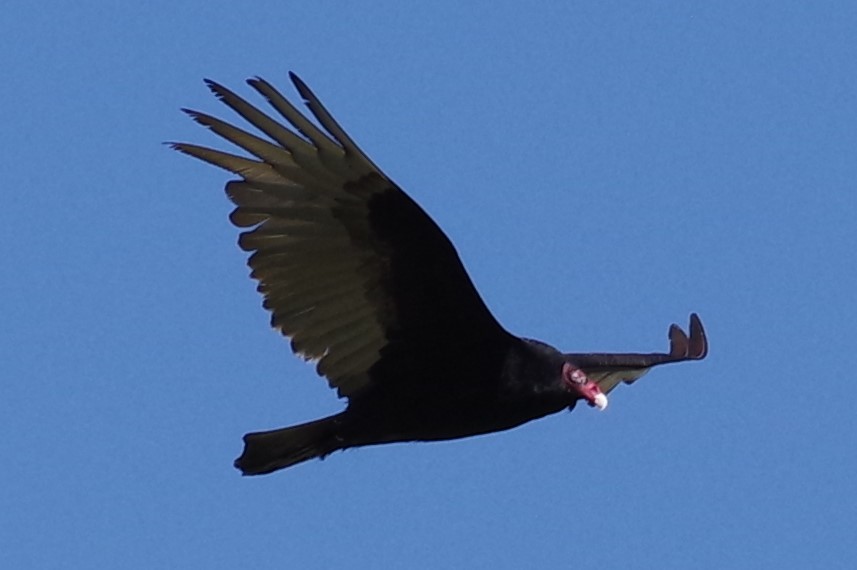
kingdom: Animalia
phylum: Chordata
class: Aves
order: Accipitriformes
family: Cathartidae
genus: Cathartes
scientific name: Cathartes aura
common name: Turkey vulture
